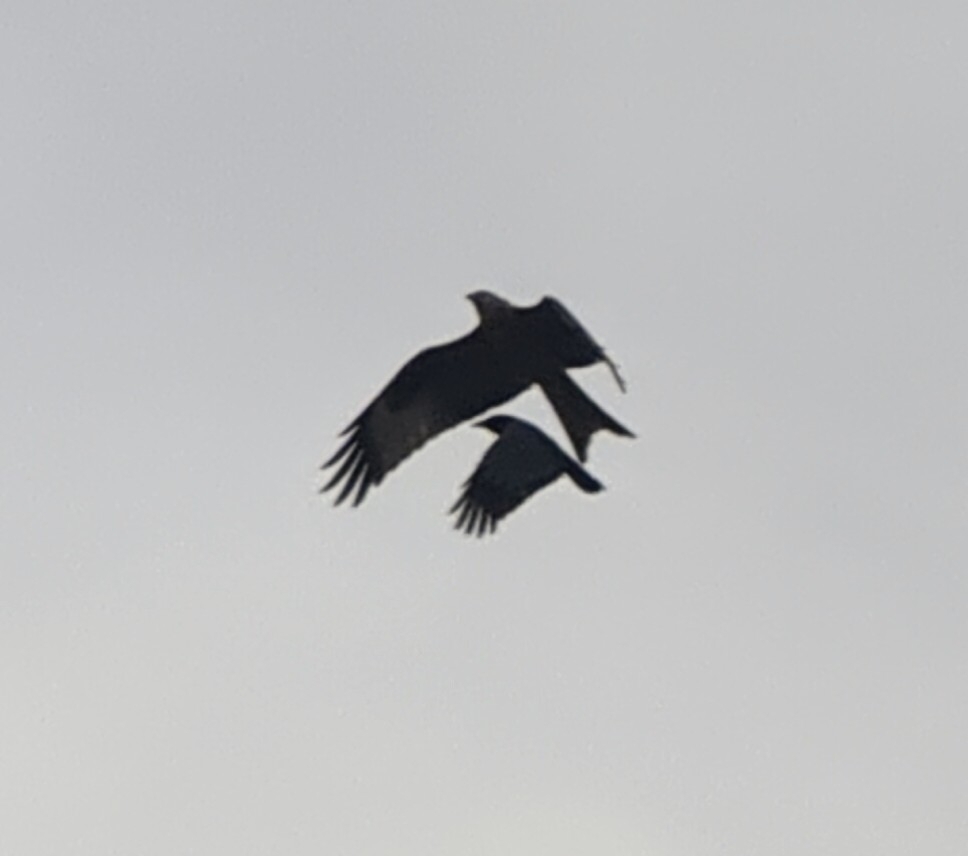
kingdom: Animalia
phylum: Chordata
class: Aves
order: Accipitriformes
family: Accipitridae
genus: Milvus
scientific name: Milvus milvus
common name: Red kite
